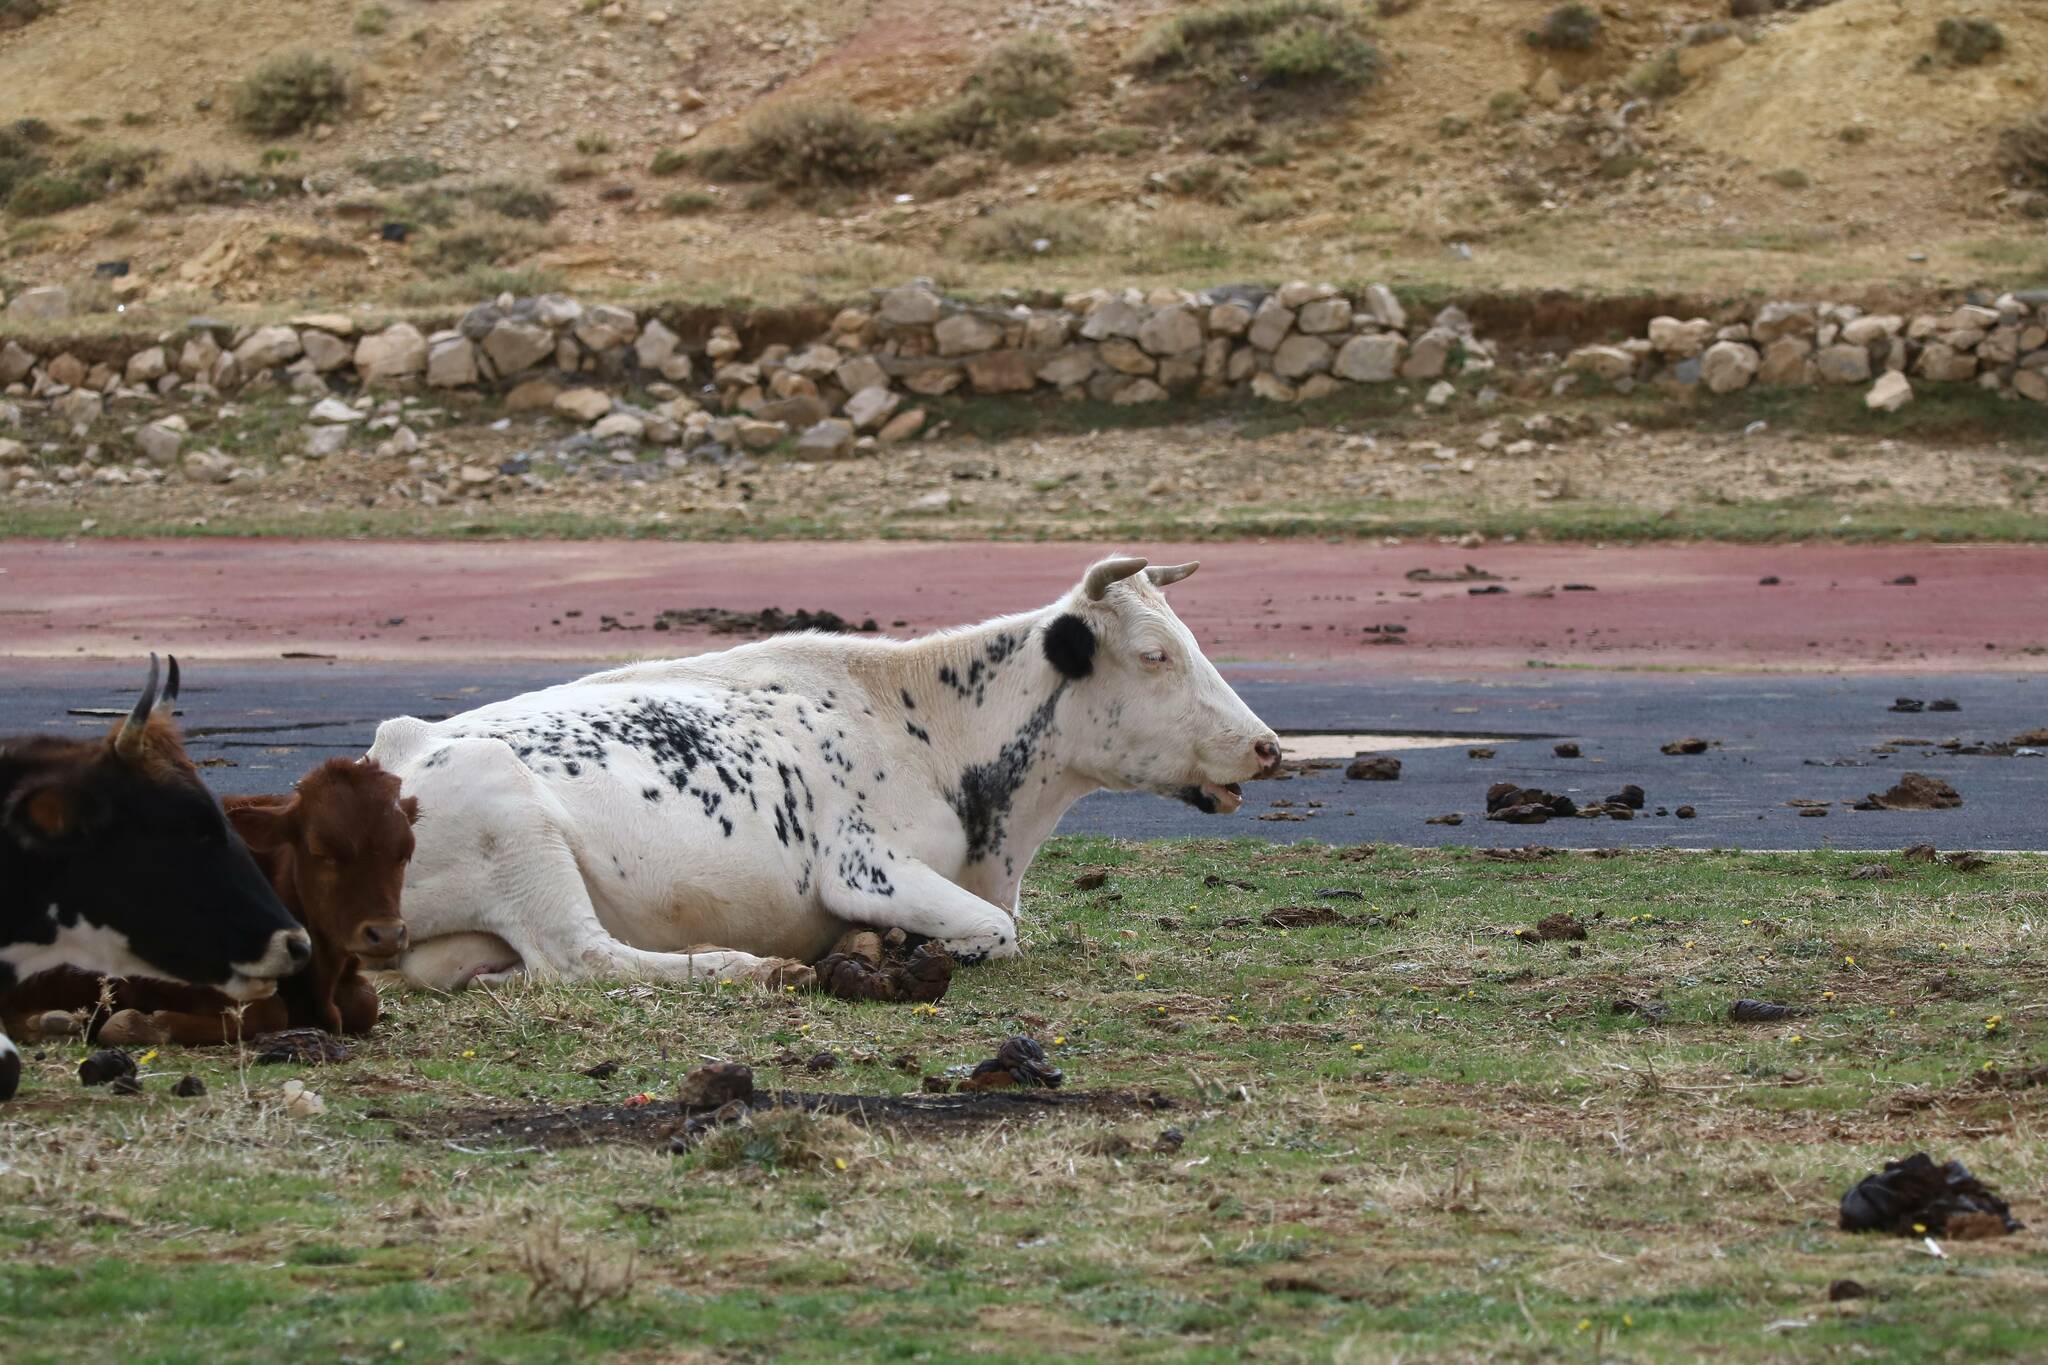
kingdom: Animalia
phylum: Chordata
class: Mammalia
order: Artiodactyla
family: Bovidae
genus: Bos
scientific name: Bos taurus
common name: Domesticated cattle
